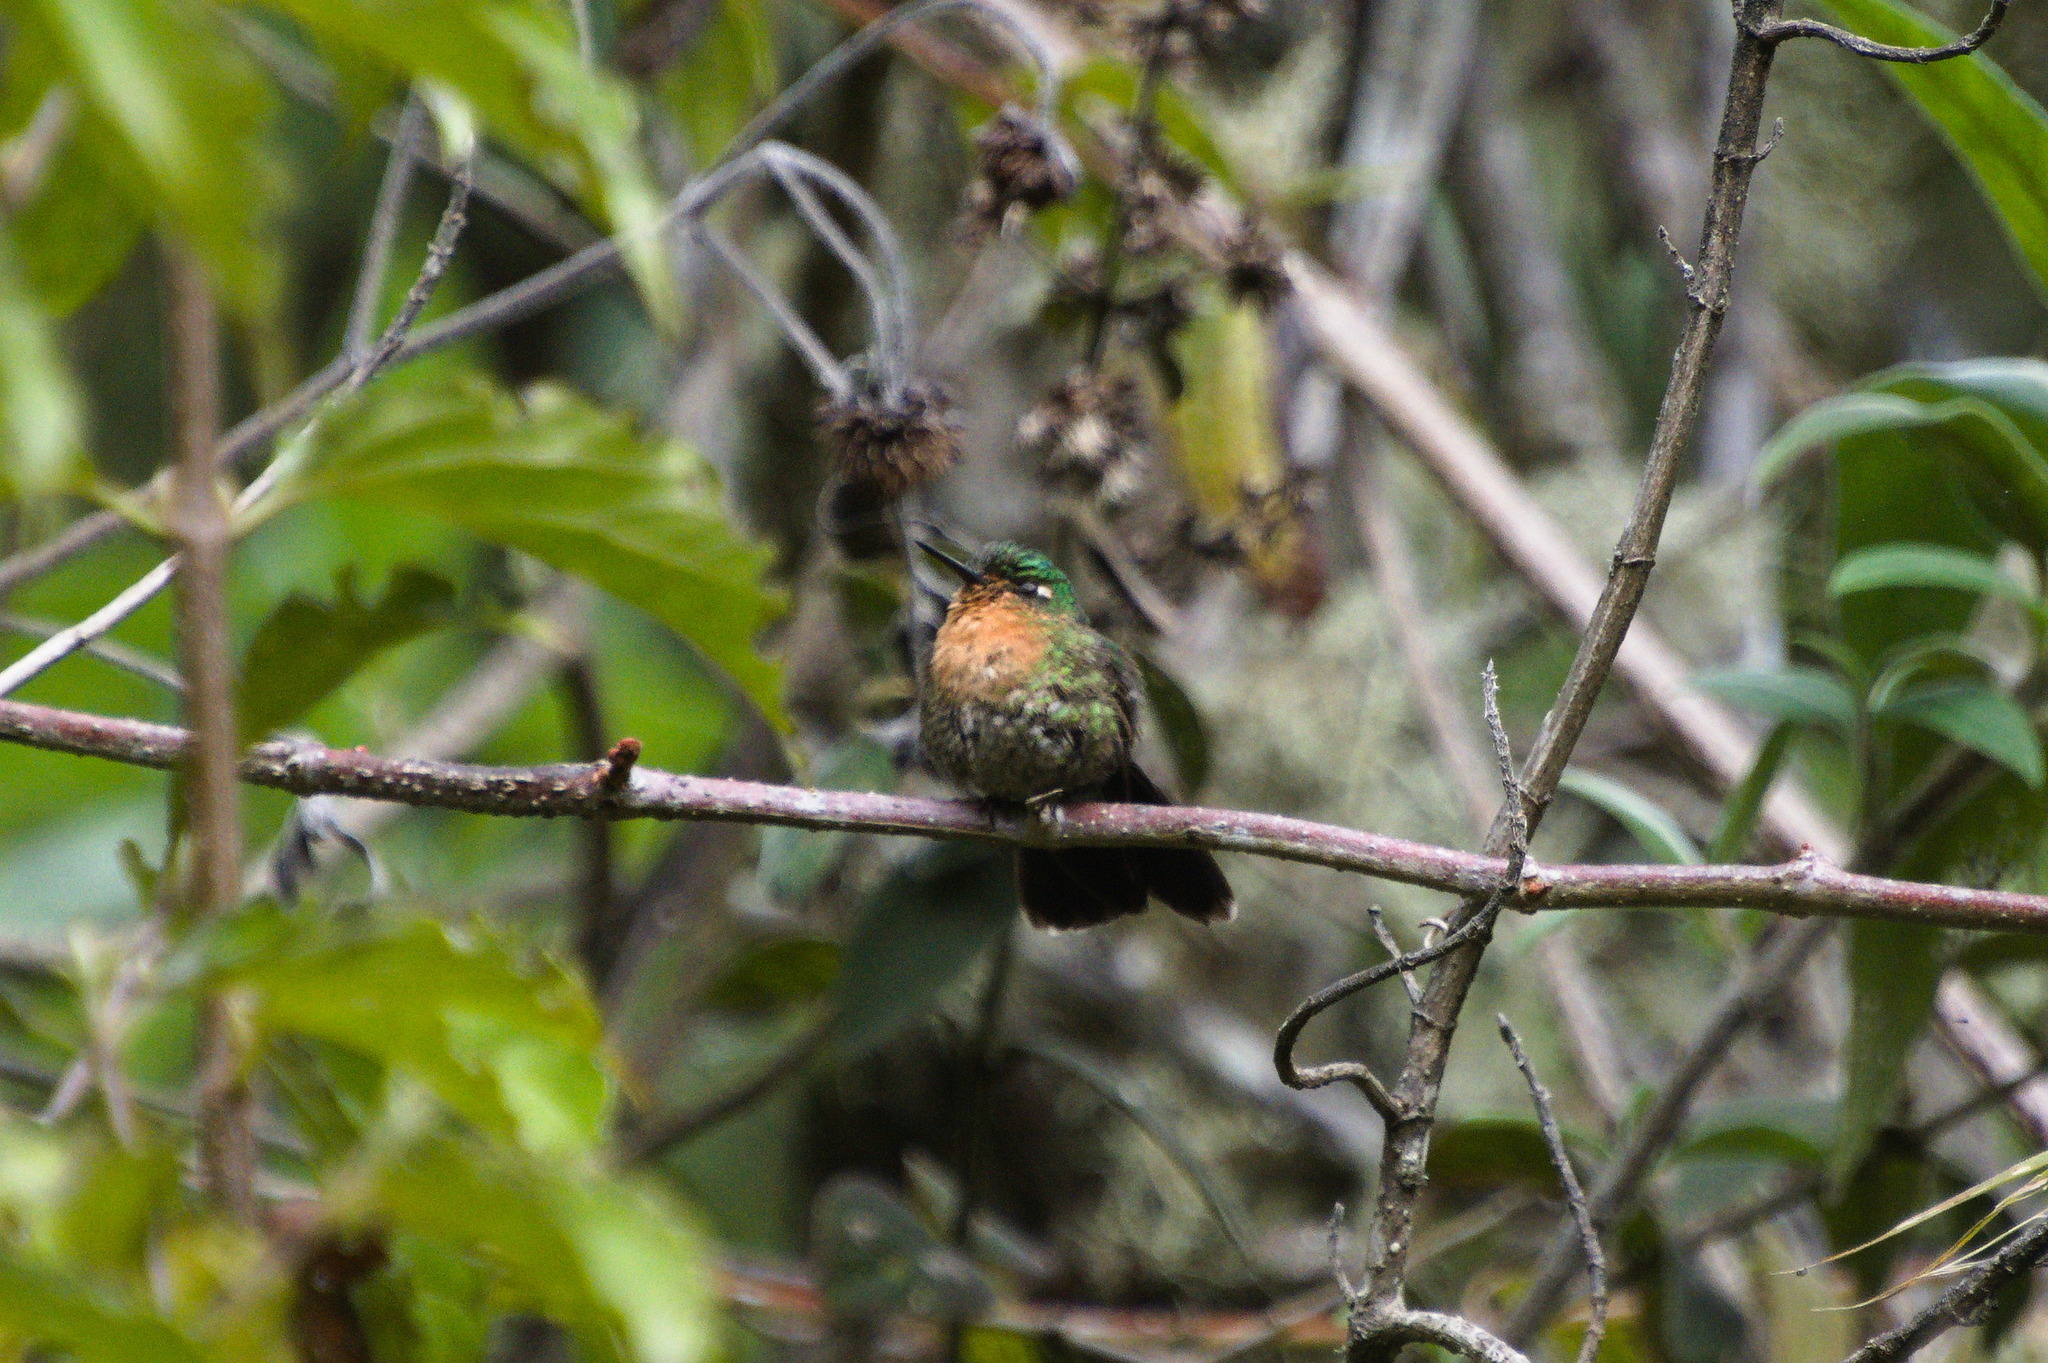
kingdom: Animalia
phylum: Chordata
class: Aves
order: Apodiformes
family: Trochilidae
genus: Metallura
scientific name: Metallura tyrianthina
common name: Tyrian metaltail
